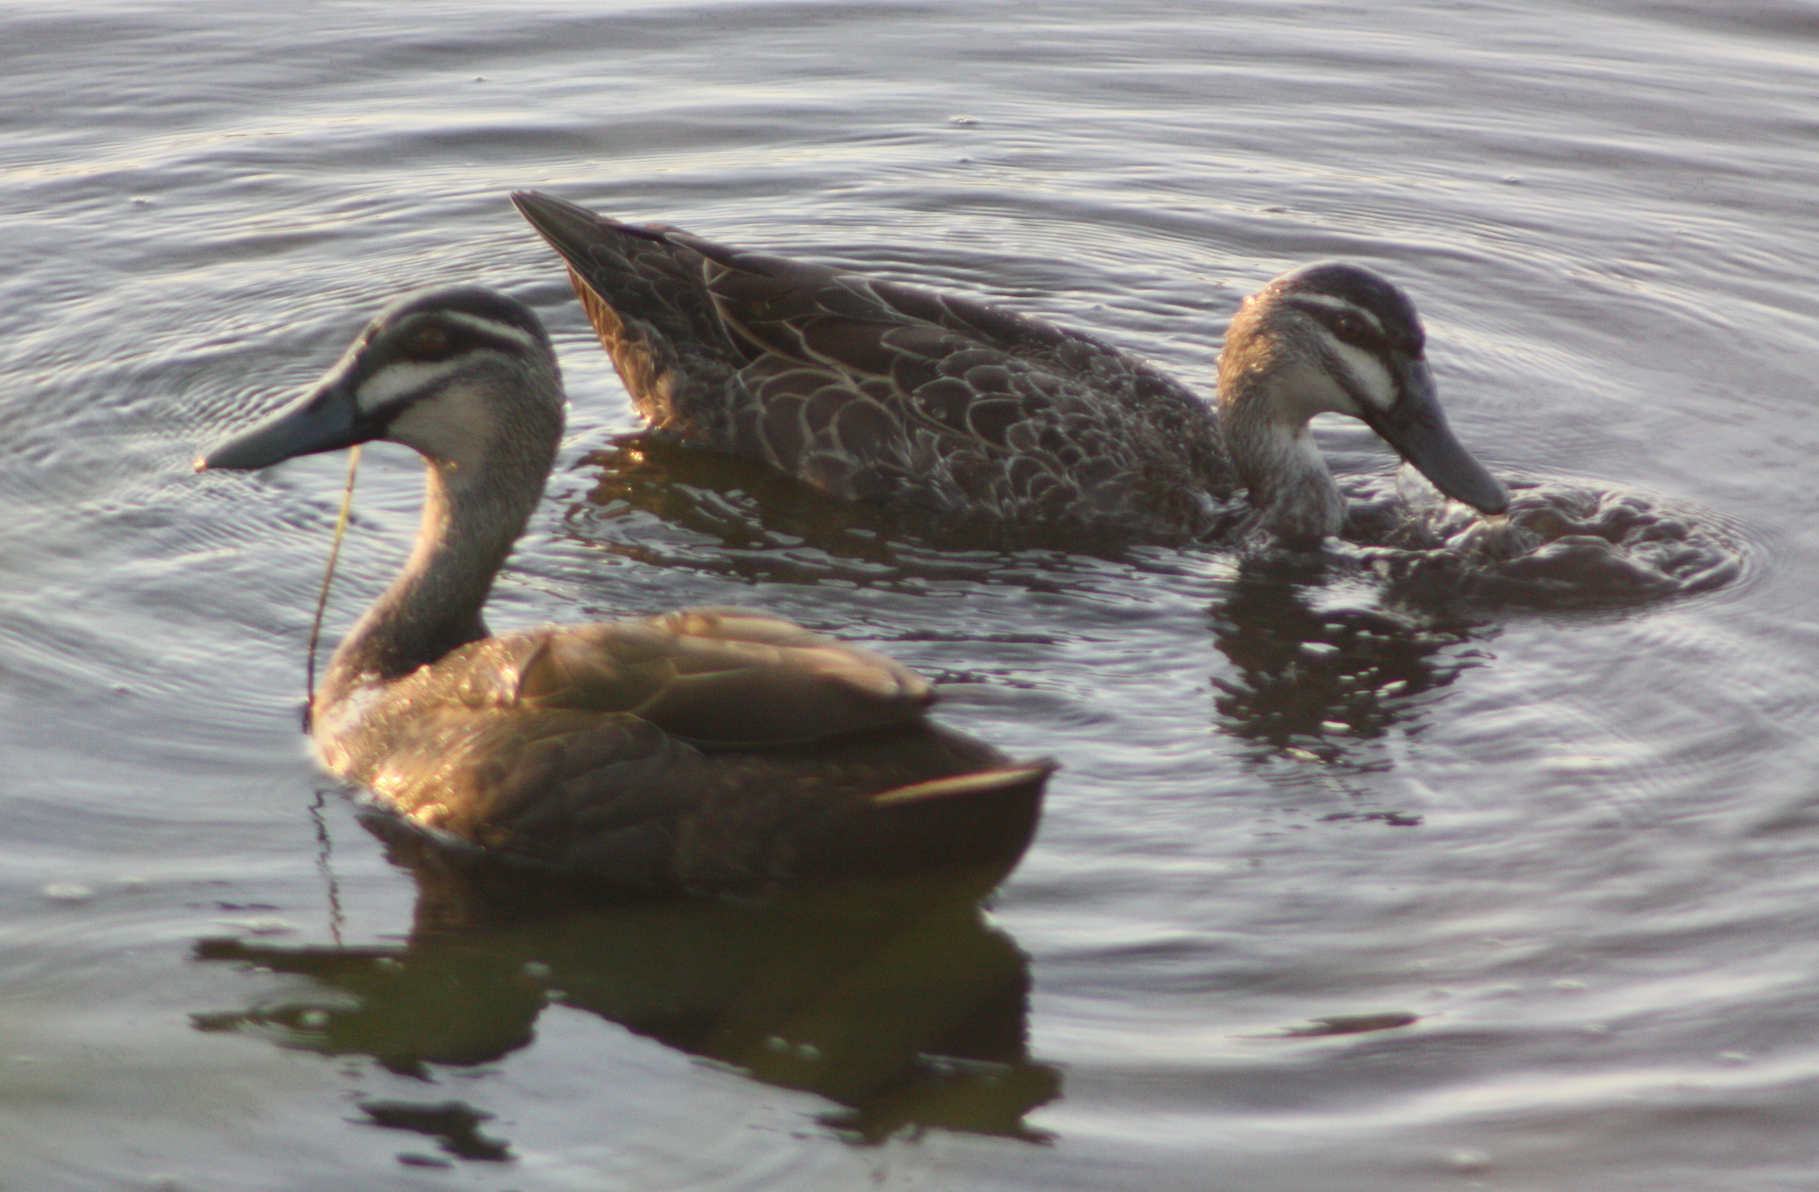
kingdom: Animalia
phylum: Chordata
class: Aves
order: Anseriformes
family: Anatidae
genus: Anas
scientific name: Anas superciliosa
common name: Pacific black duck
